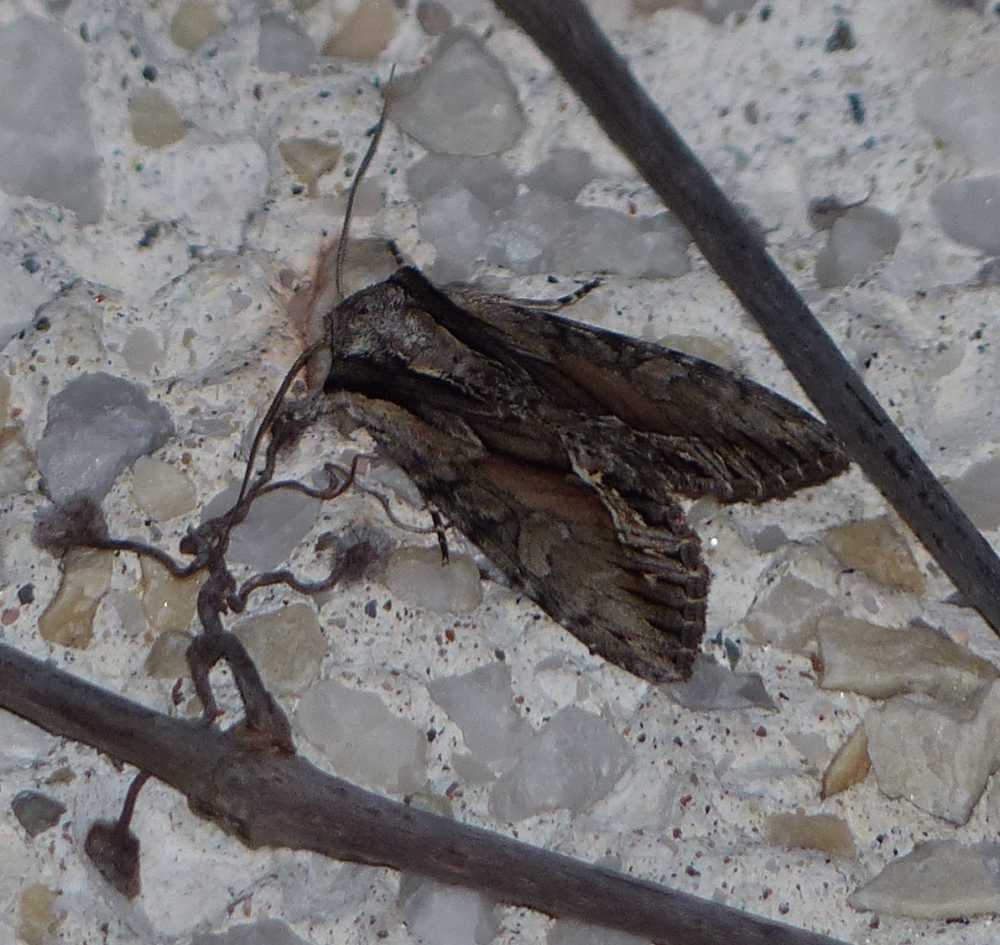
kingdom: Animalia
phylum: Arthropoda
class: Insecta
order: Lepidoptera
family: Noctuidae
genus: Hyppa
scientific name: Hyppa xylinoides
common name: Common hyppa moth
